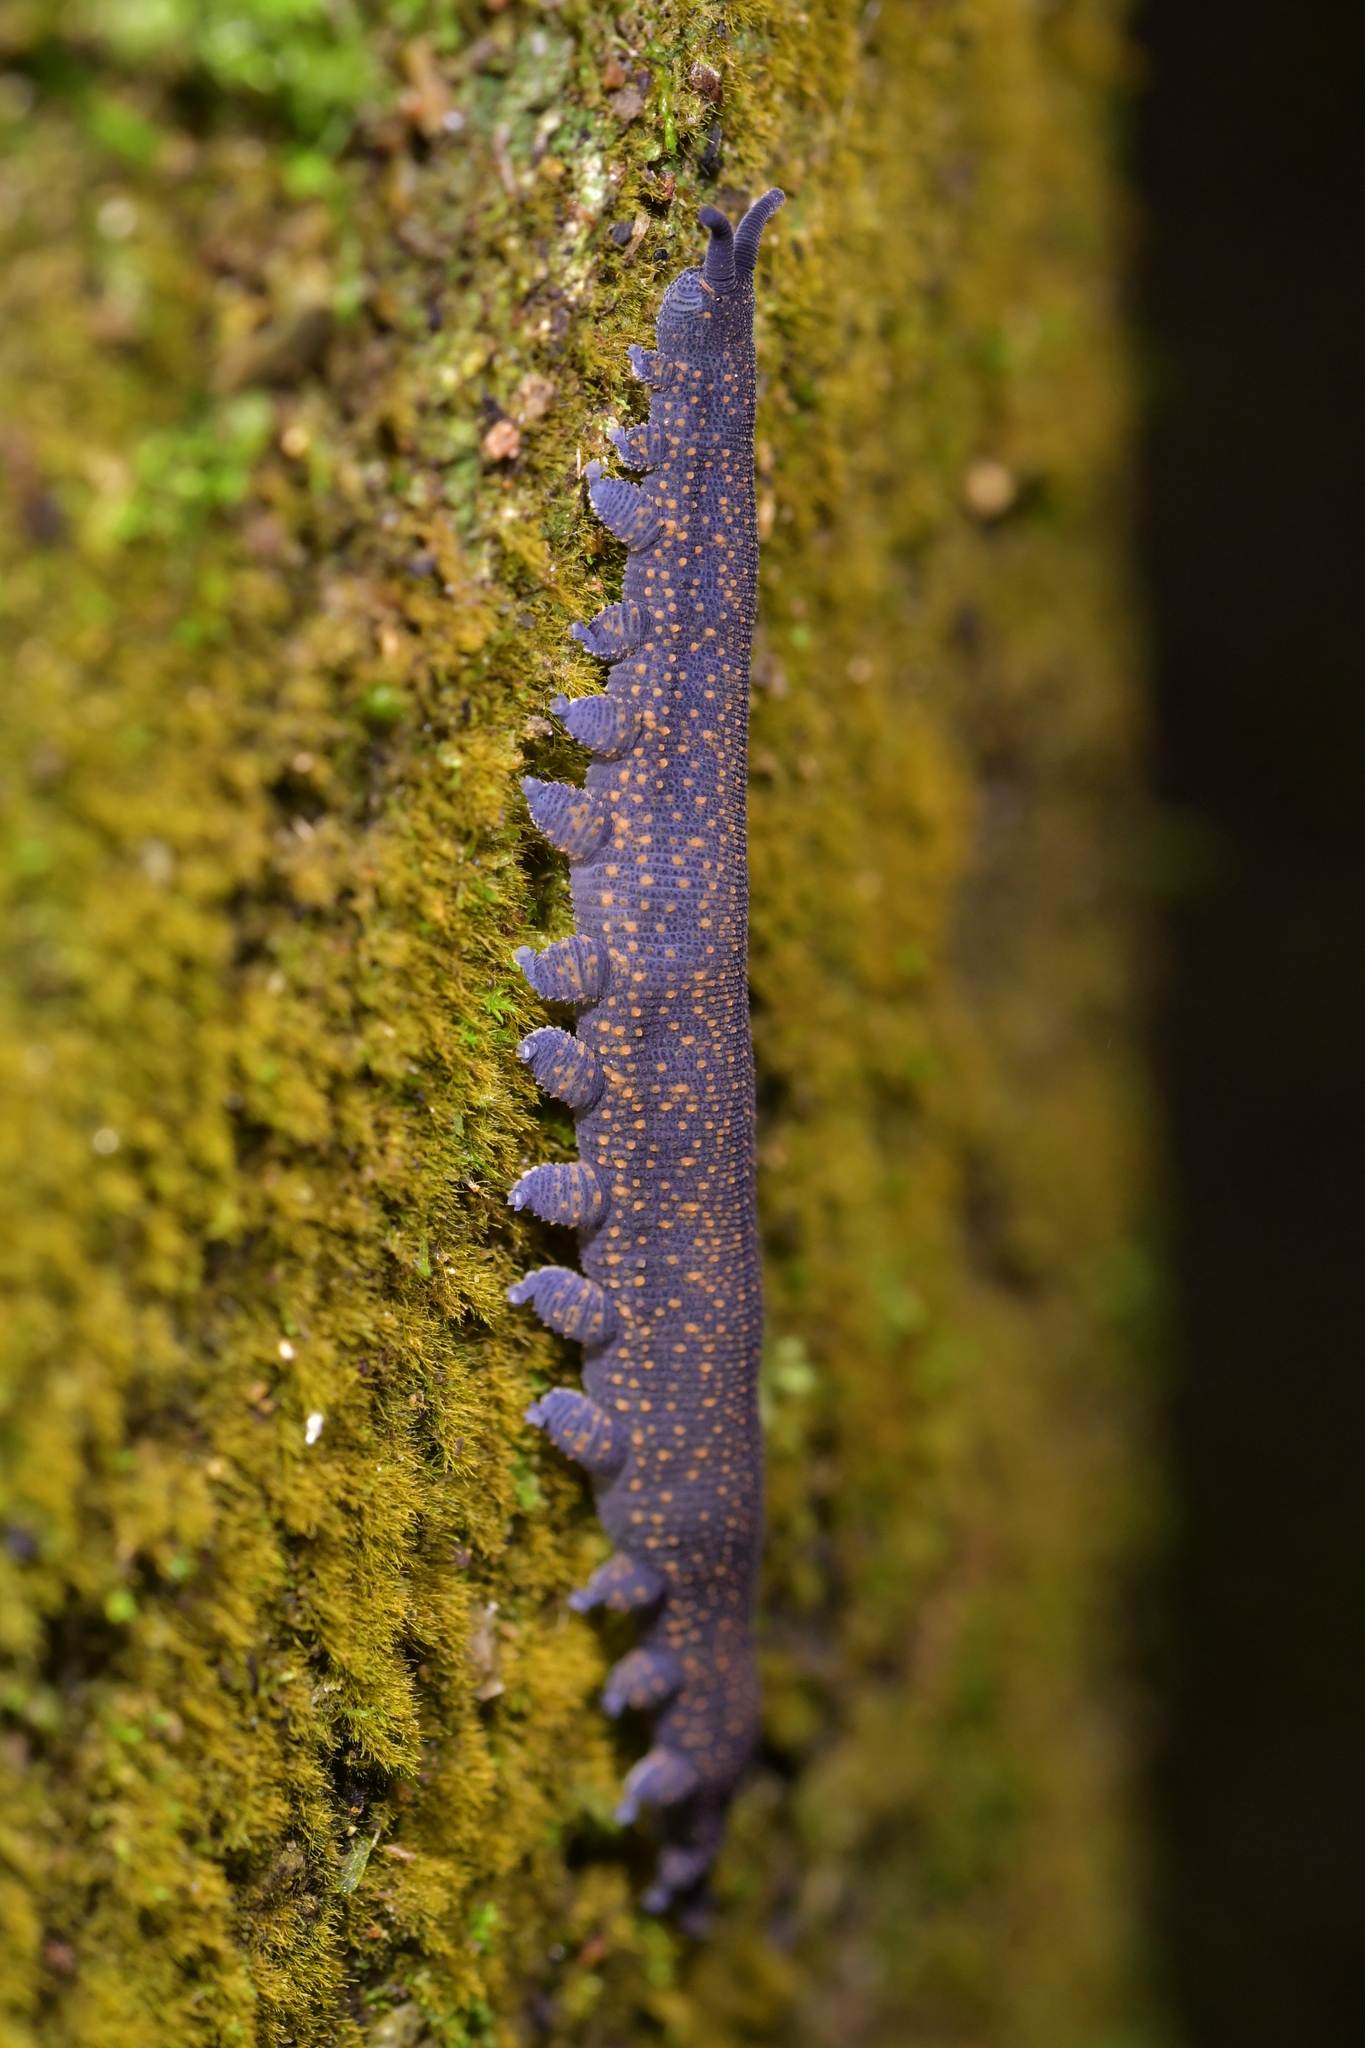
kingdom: Animalia
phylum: Onychophora
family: Peripatopsidae
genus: Peripatoides
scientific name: Peripatoides novaezealandiae
